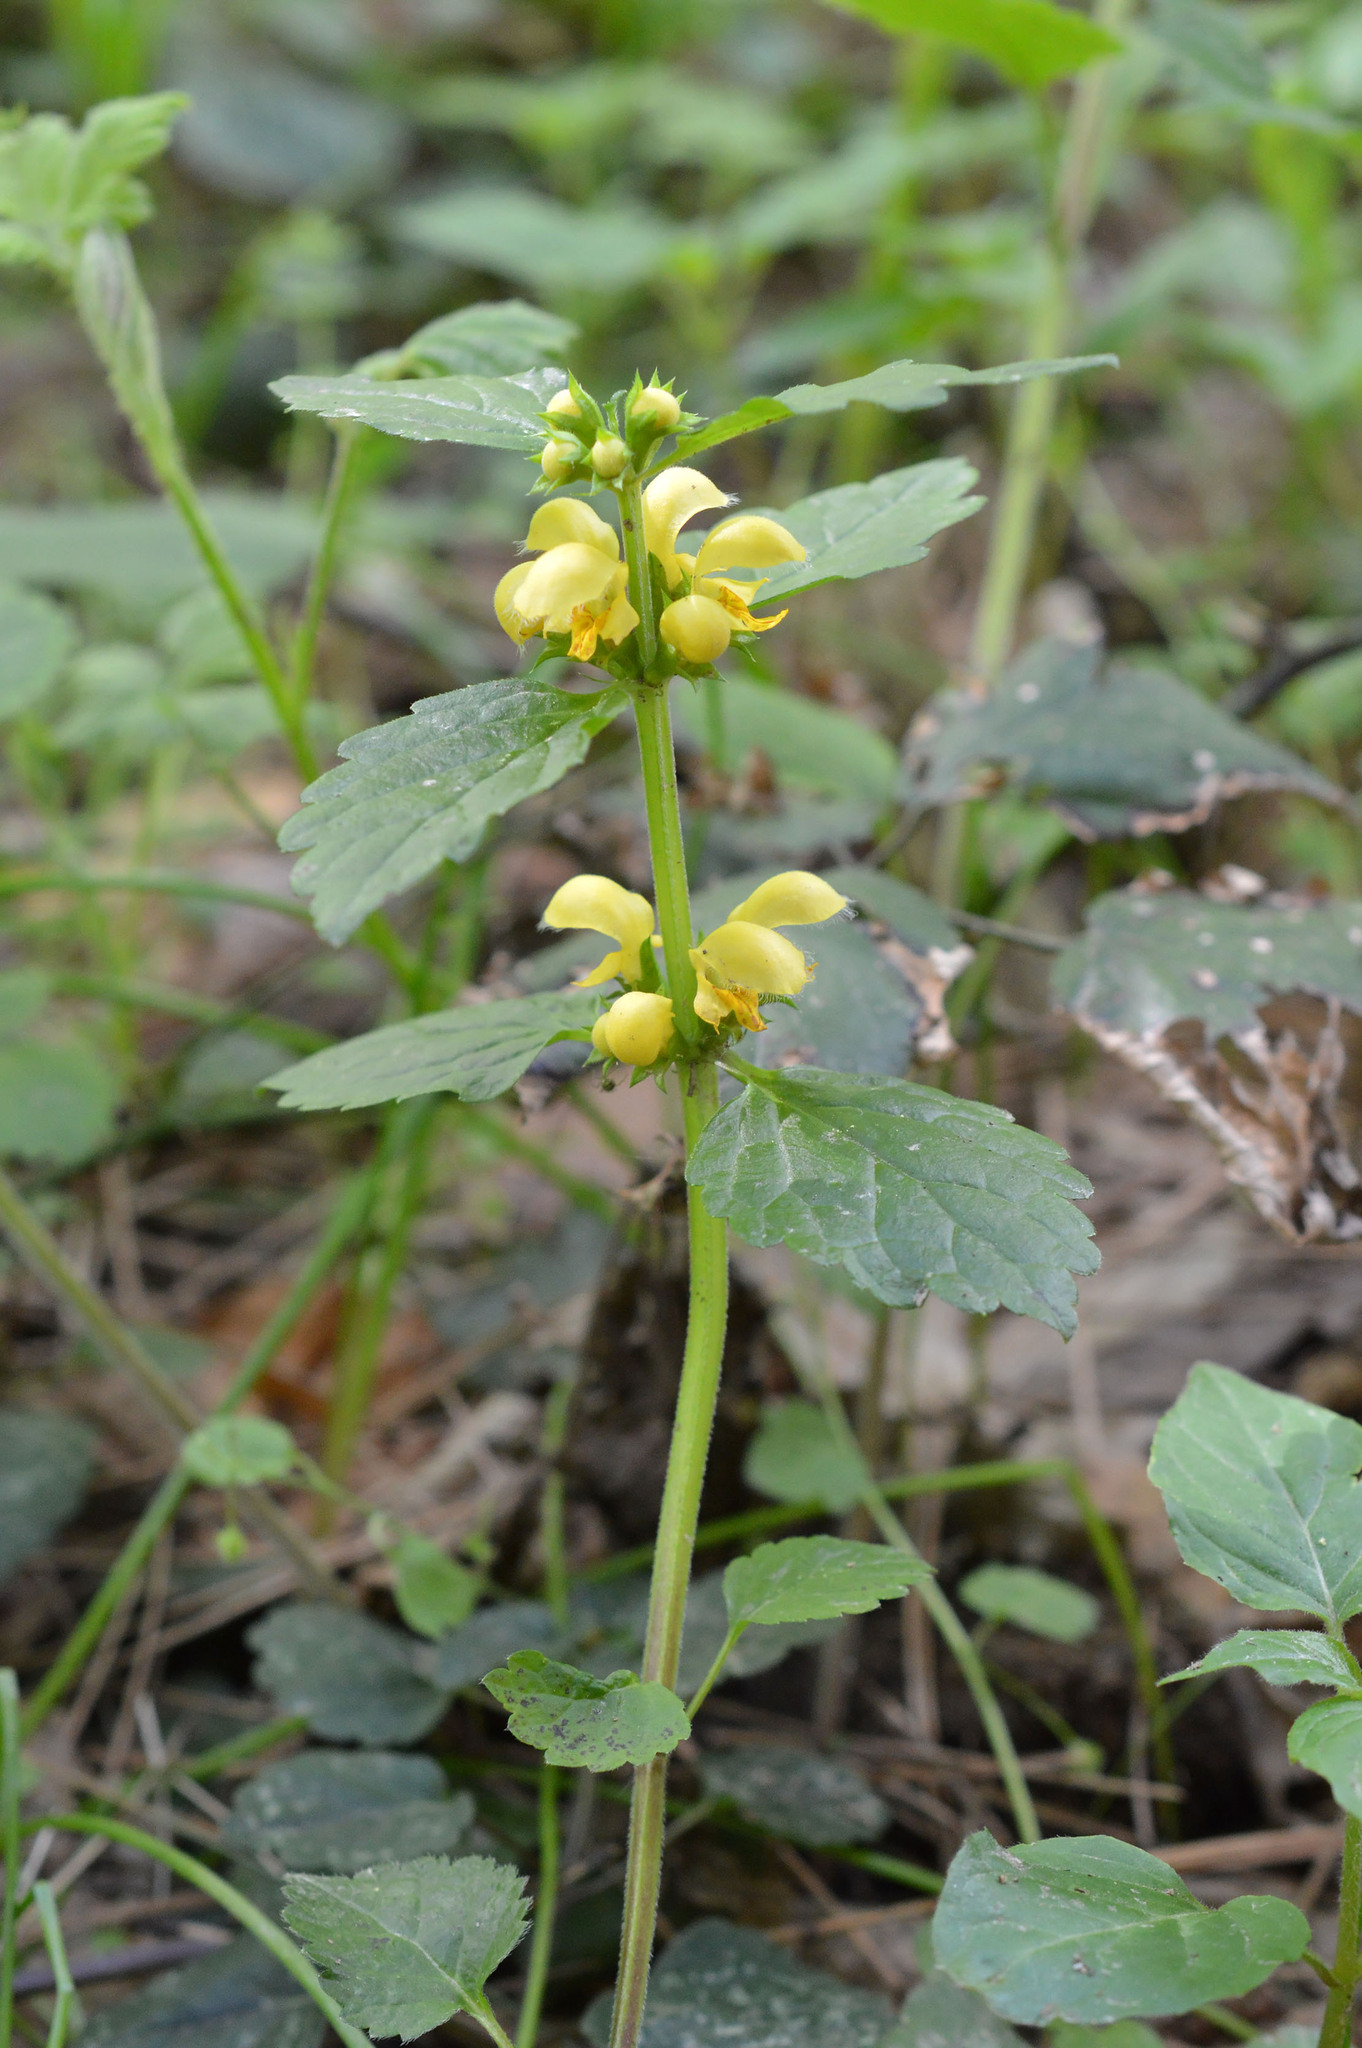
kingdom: Plantae
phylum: Tracheophyta
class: Magnoliopsida
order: Lamiales
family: Lamiaceae
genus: Lamium
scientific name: Lamium galeobdolon
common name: Yellow archangel
